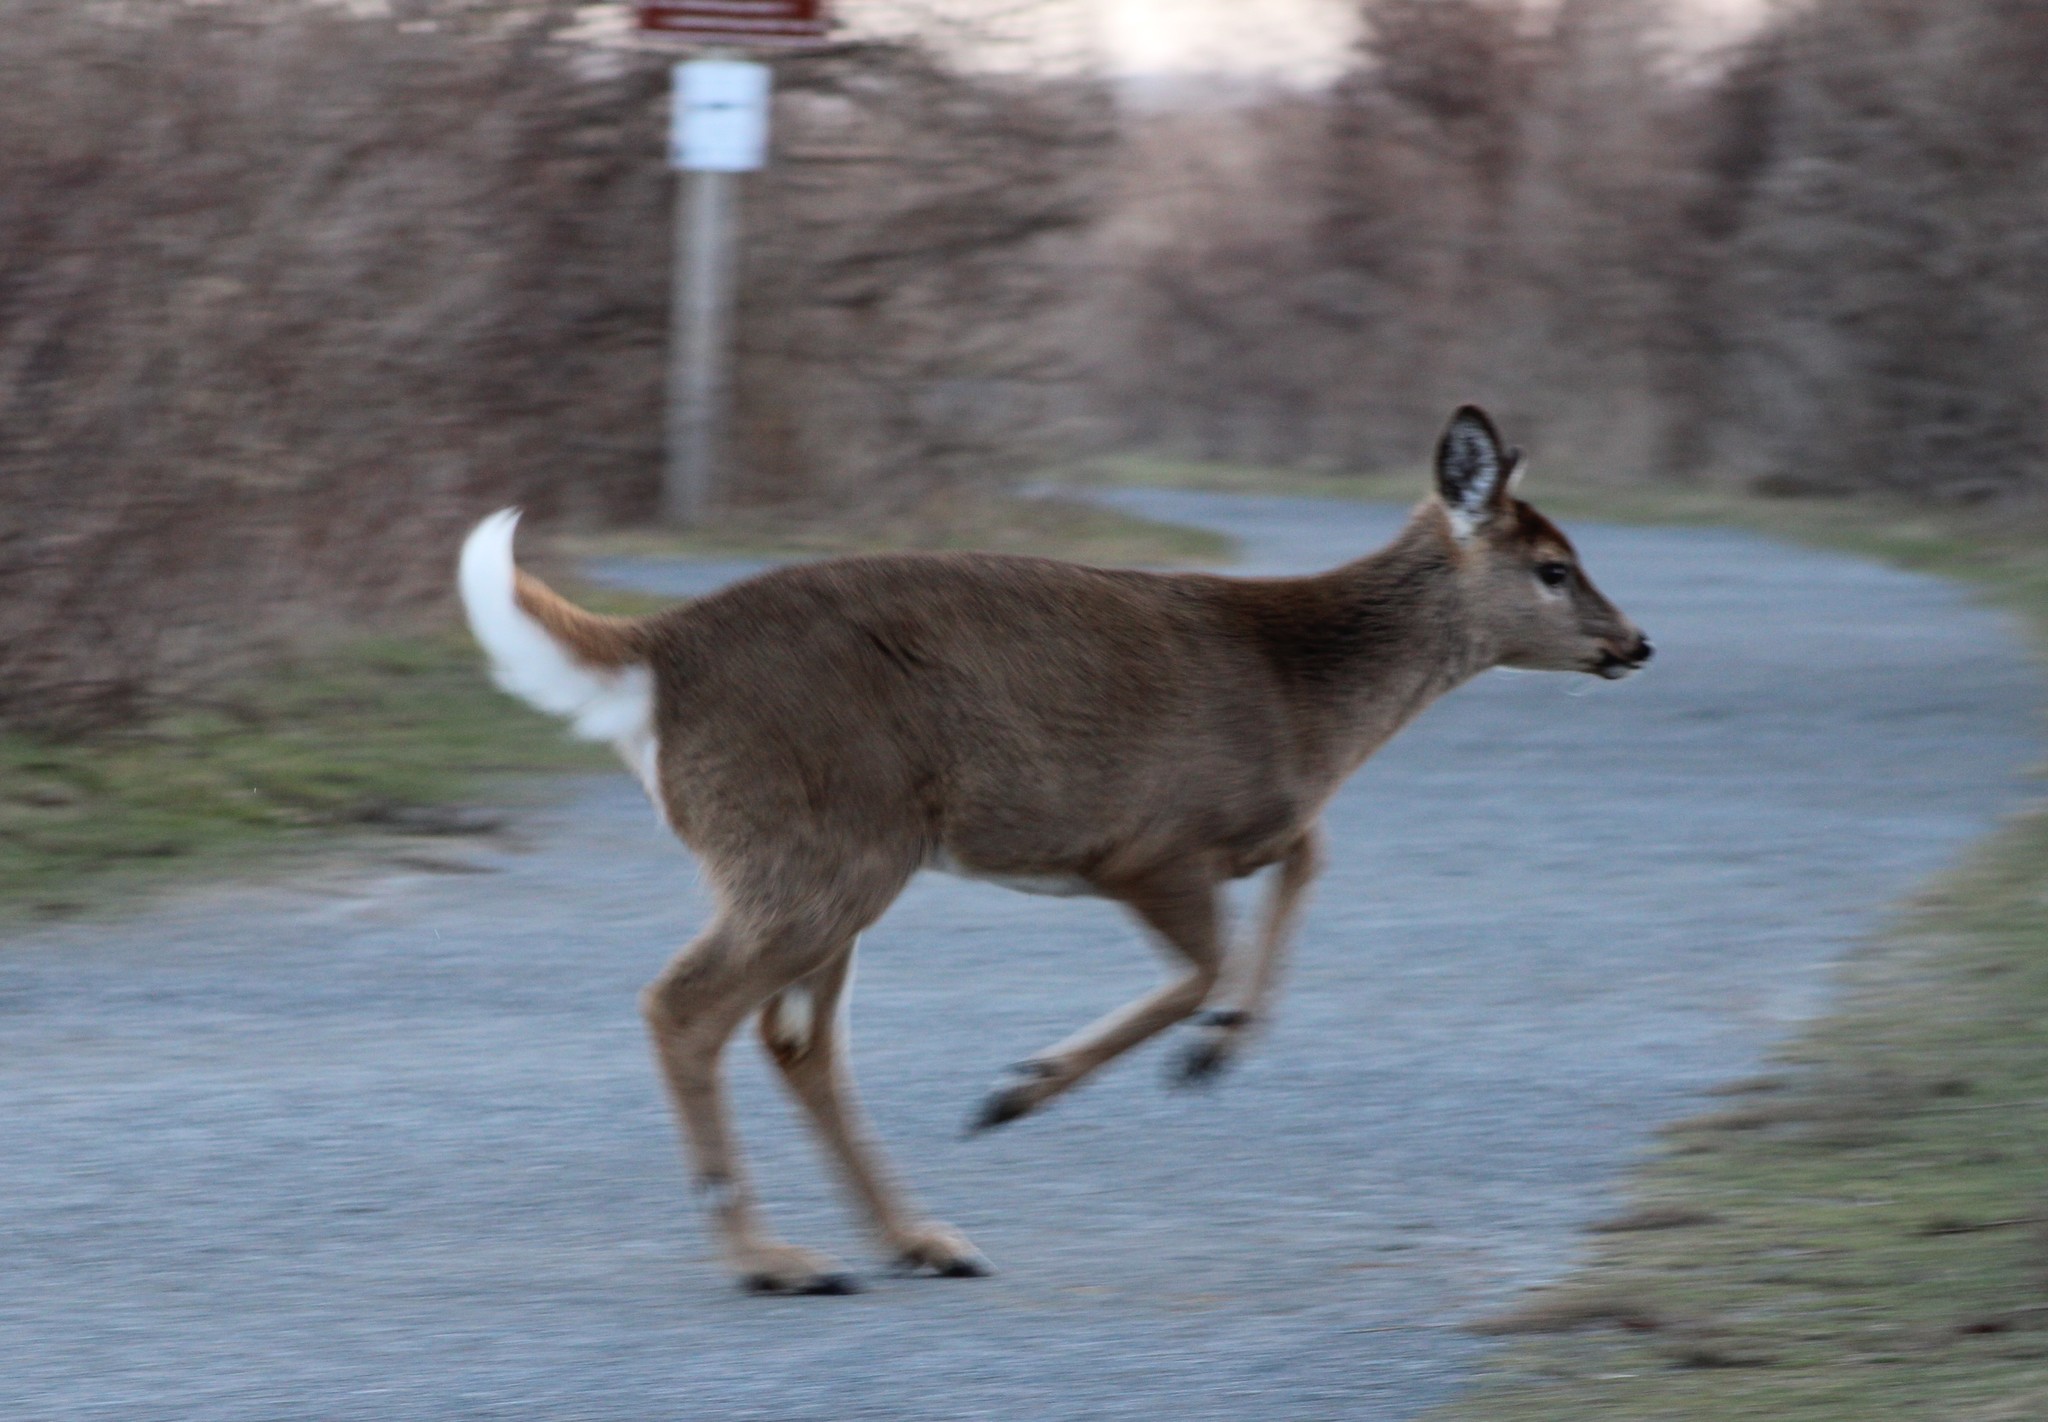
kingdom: Animalia
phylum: Chordata
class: Mammalia
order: Artiodactyla
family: Cervidae
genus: Odocoileus
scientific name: Odocoileus virginianus
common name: White-tailed deer
